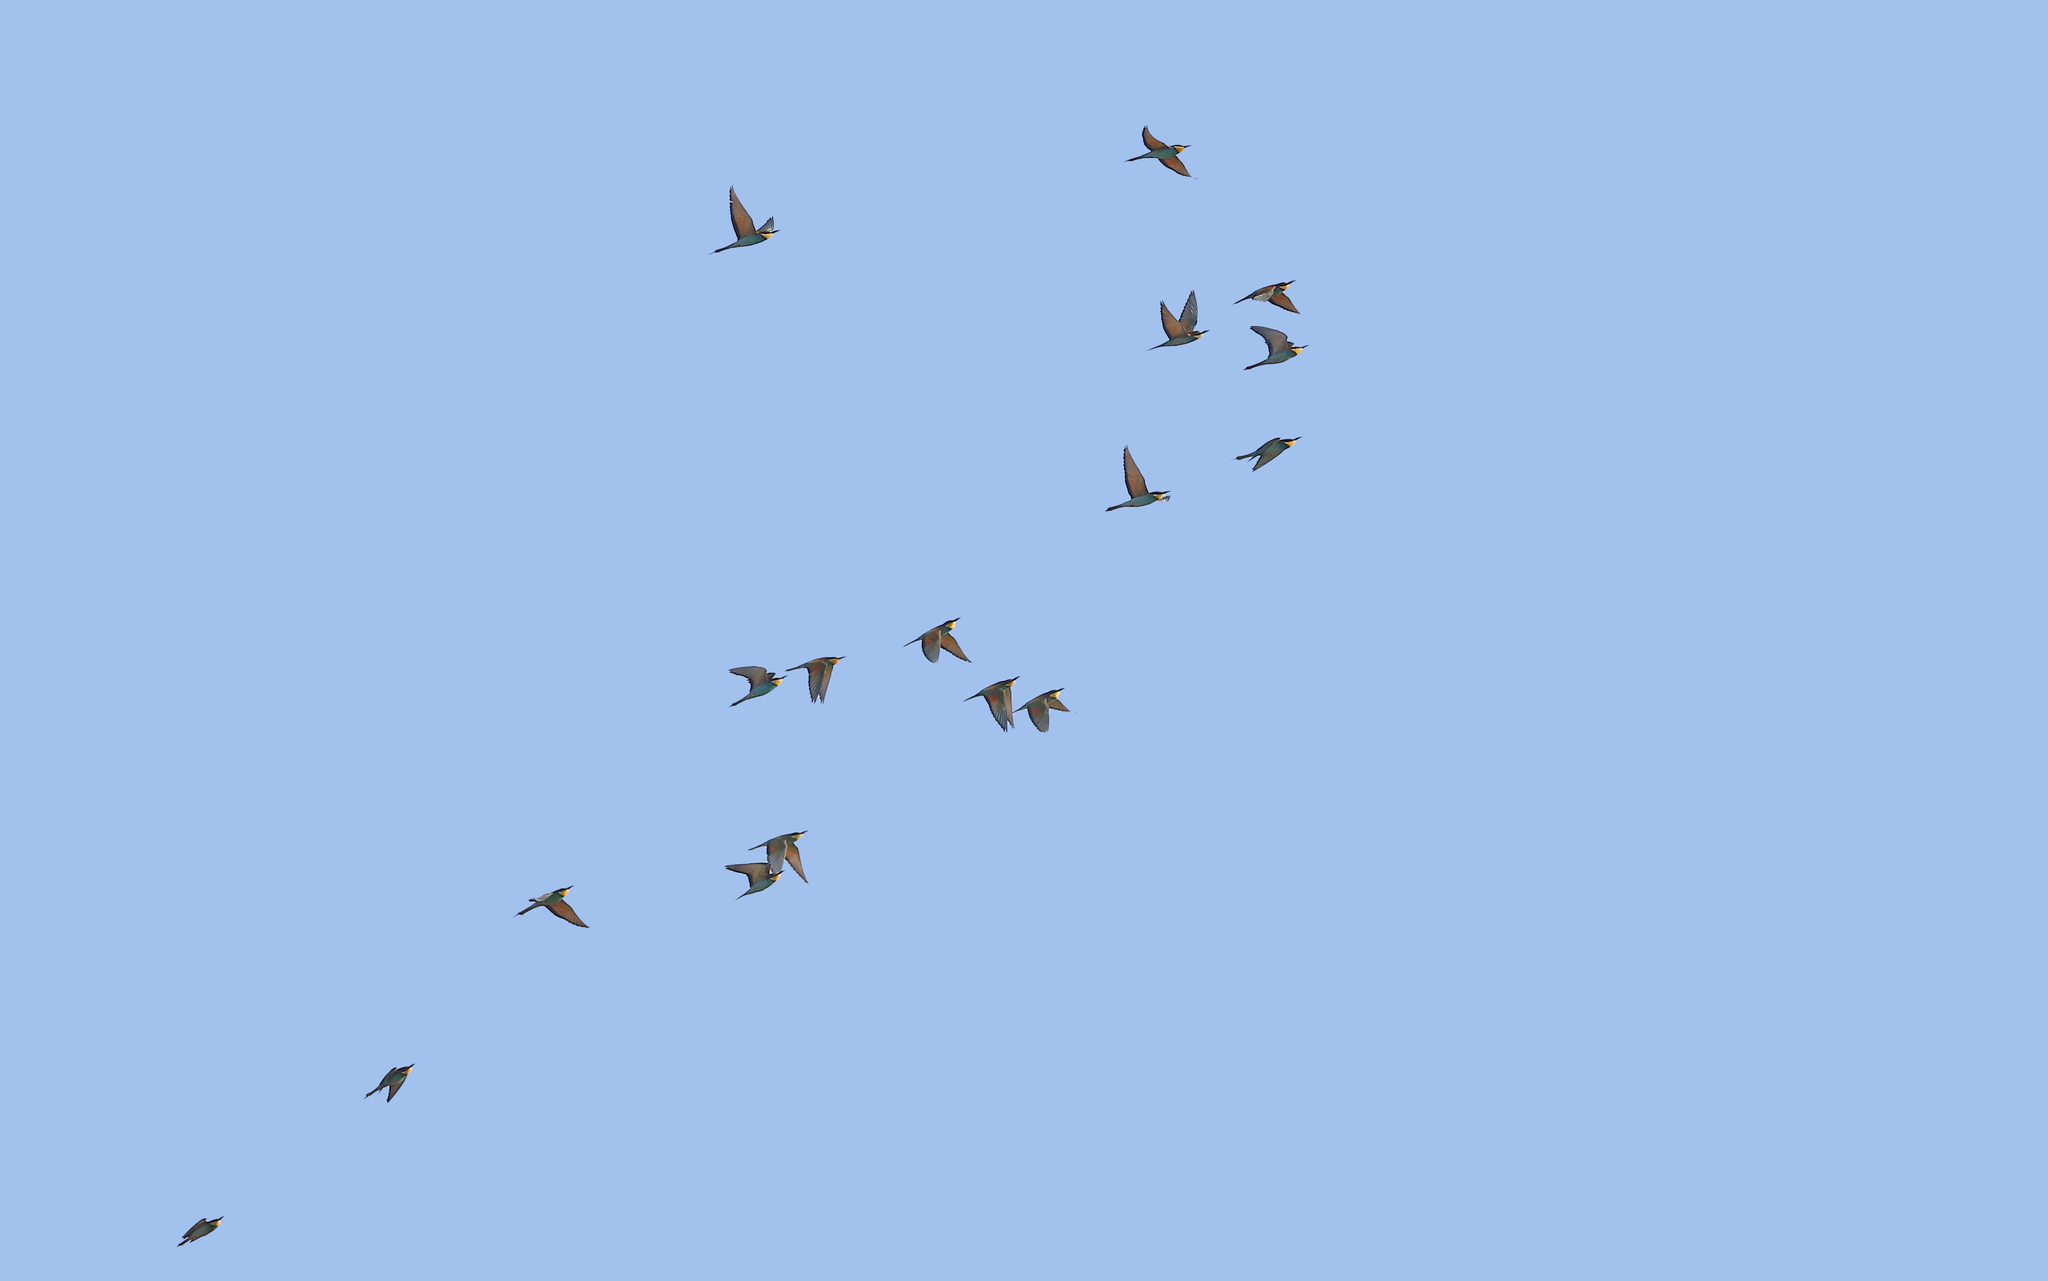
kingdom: Animalia
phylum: Chordata
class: Aves
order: Coraciiformes
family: Meropidae
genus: Merops
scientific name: Merops apiaster
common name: European bee-eater
